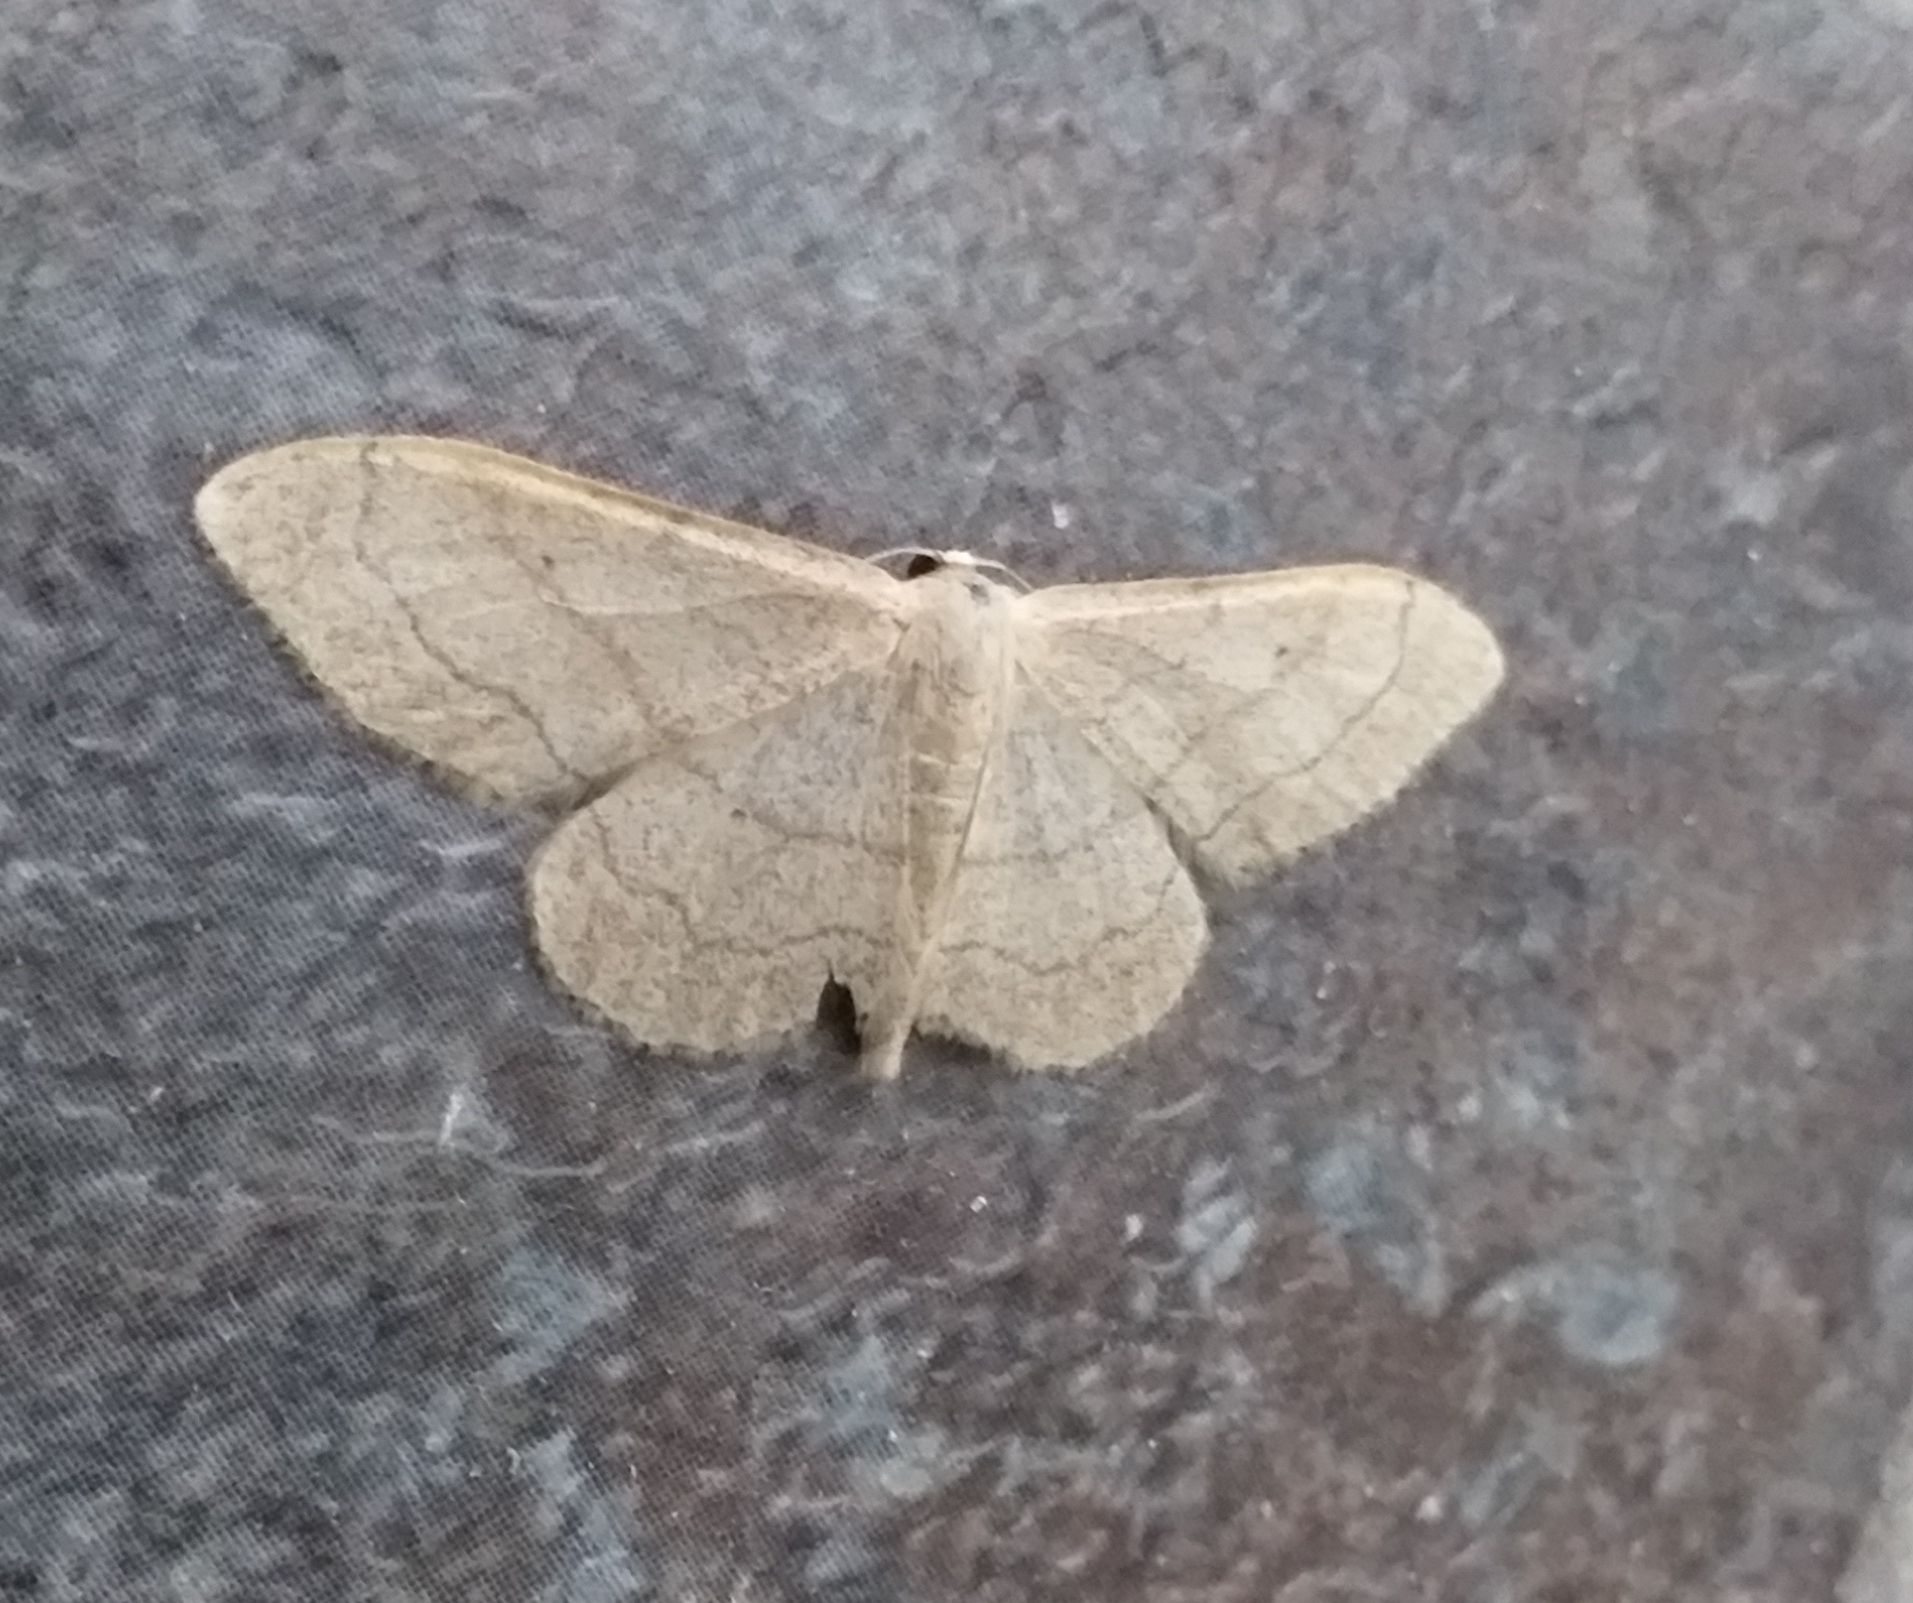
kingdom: Animalia
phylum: Arthropoda
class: Insecta
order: Lepidoptera
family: Geometridae
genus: Idaea
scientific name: Idaea aversata
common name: Riband wave
